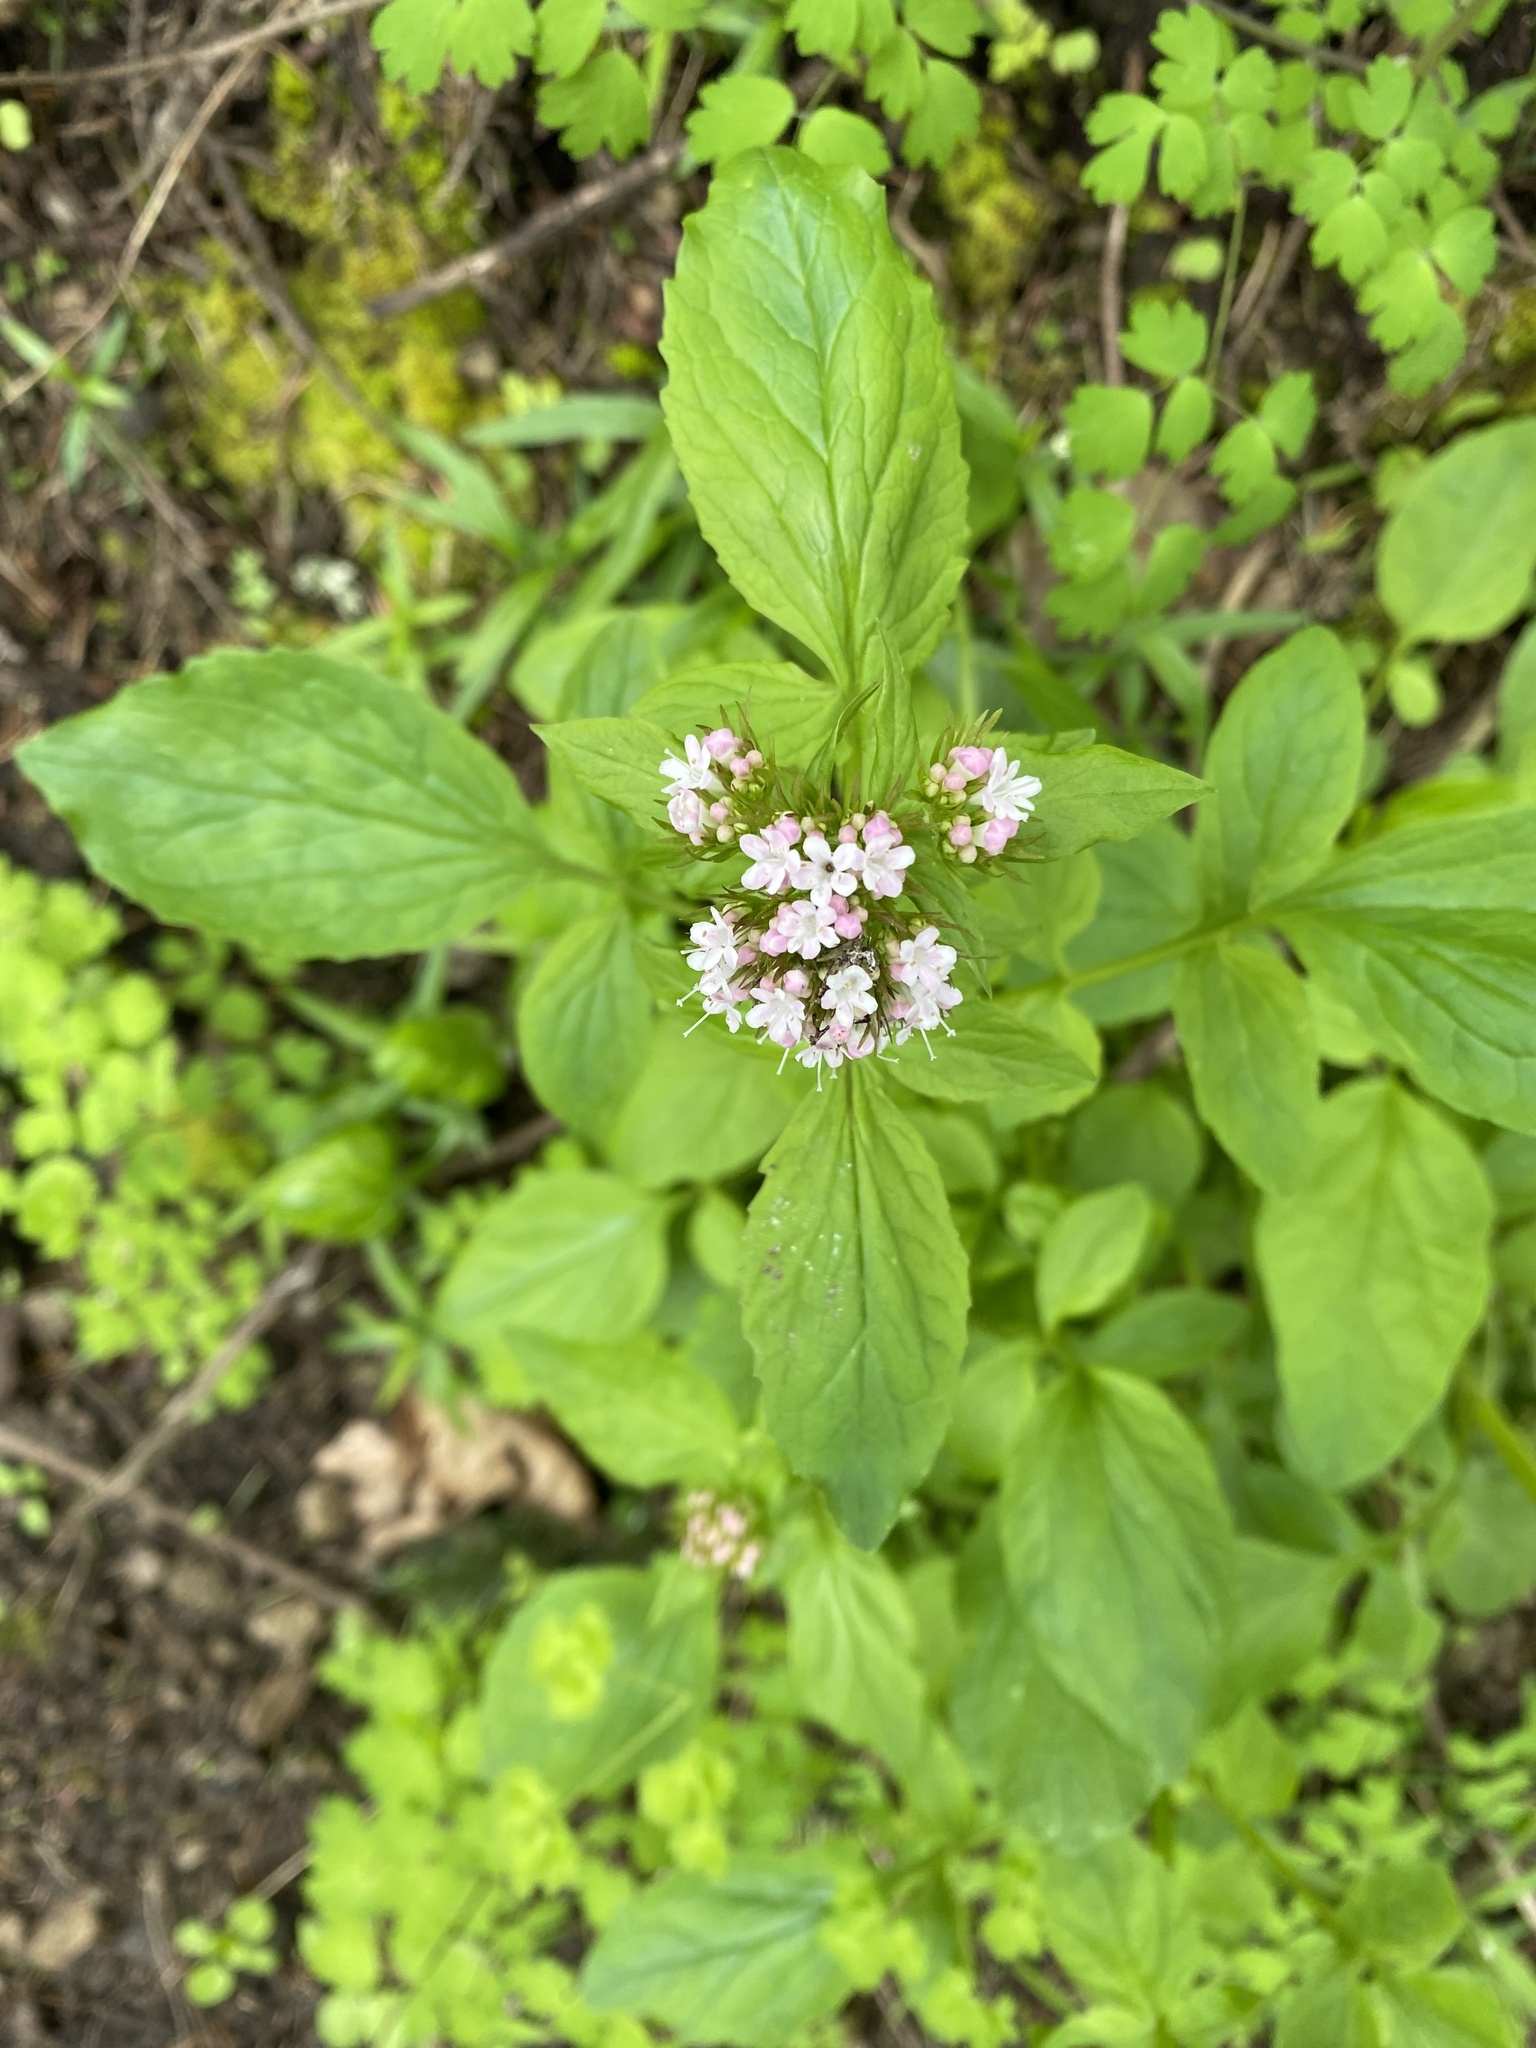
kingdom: Plantae
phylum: Tracheophyta
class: Magnoliopsida
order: Dipsacales
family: Caprifoliaceae
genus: Valeriana
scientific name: Valeriana scouleri
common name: Scouler's valerian
